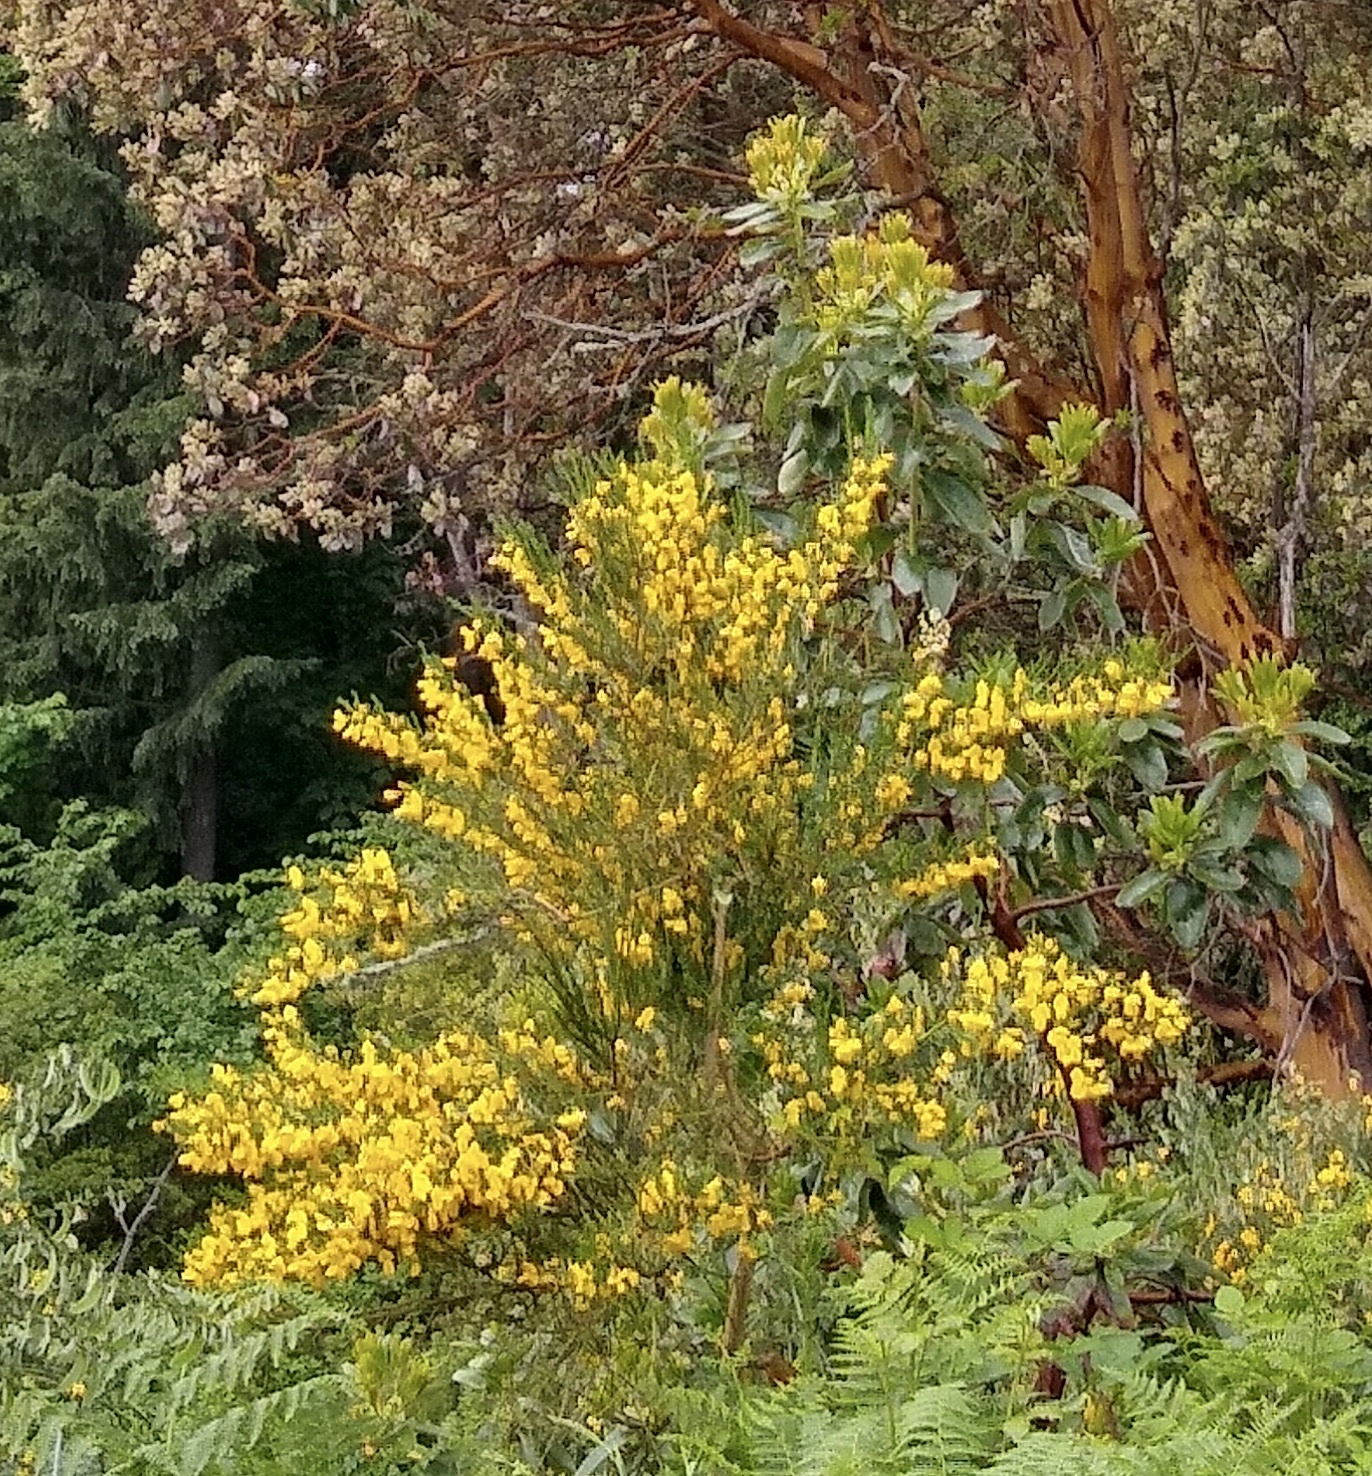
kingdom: Plantae
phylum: Tracheophyta
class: Magnoliopsida
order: Fabales
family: Fabaceae
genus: Cytisus
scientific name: Cytisus scoparius
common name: Scotch broom
